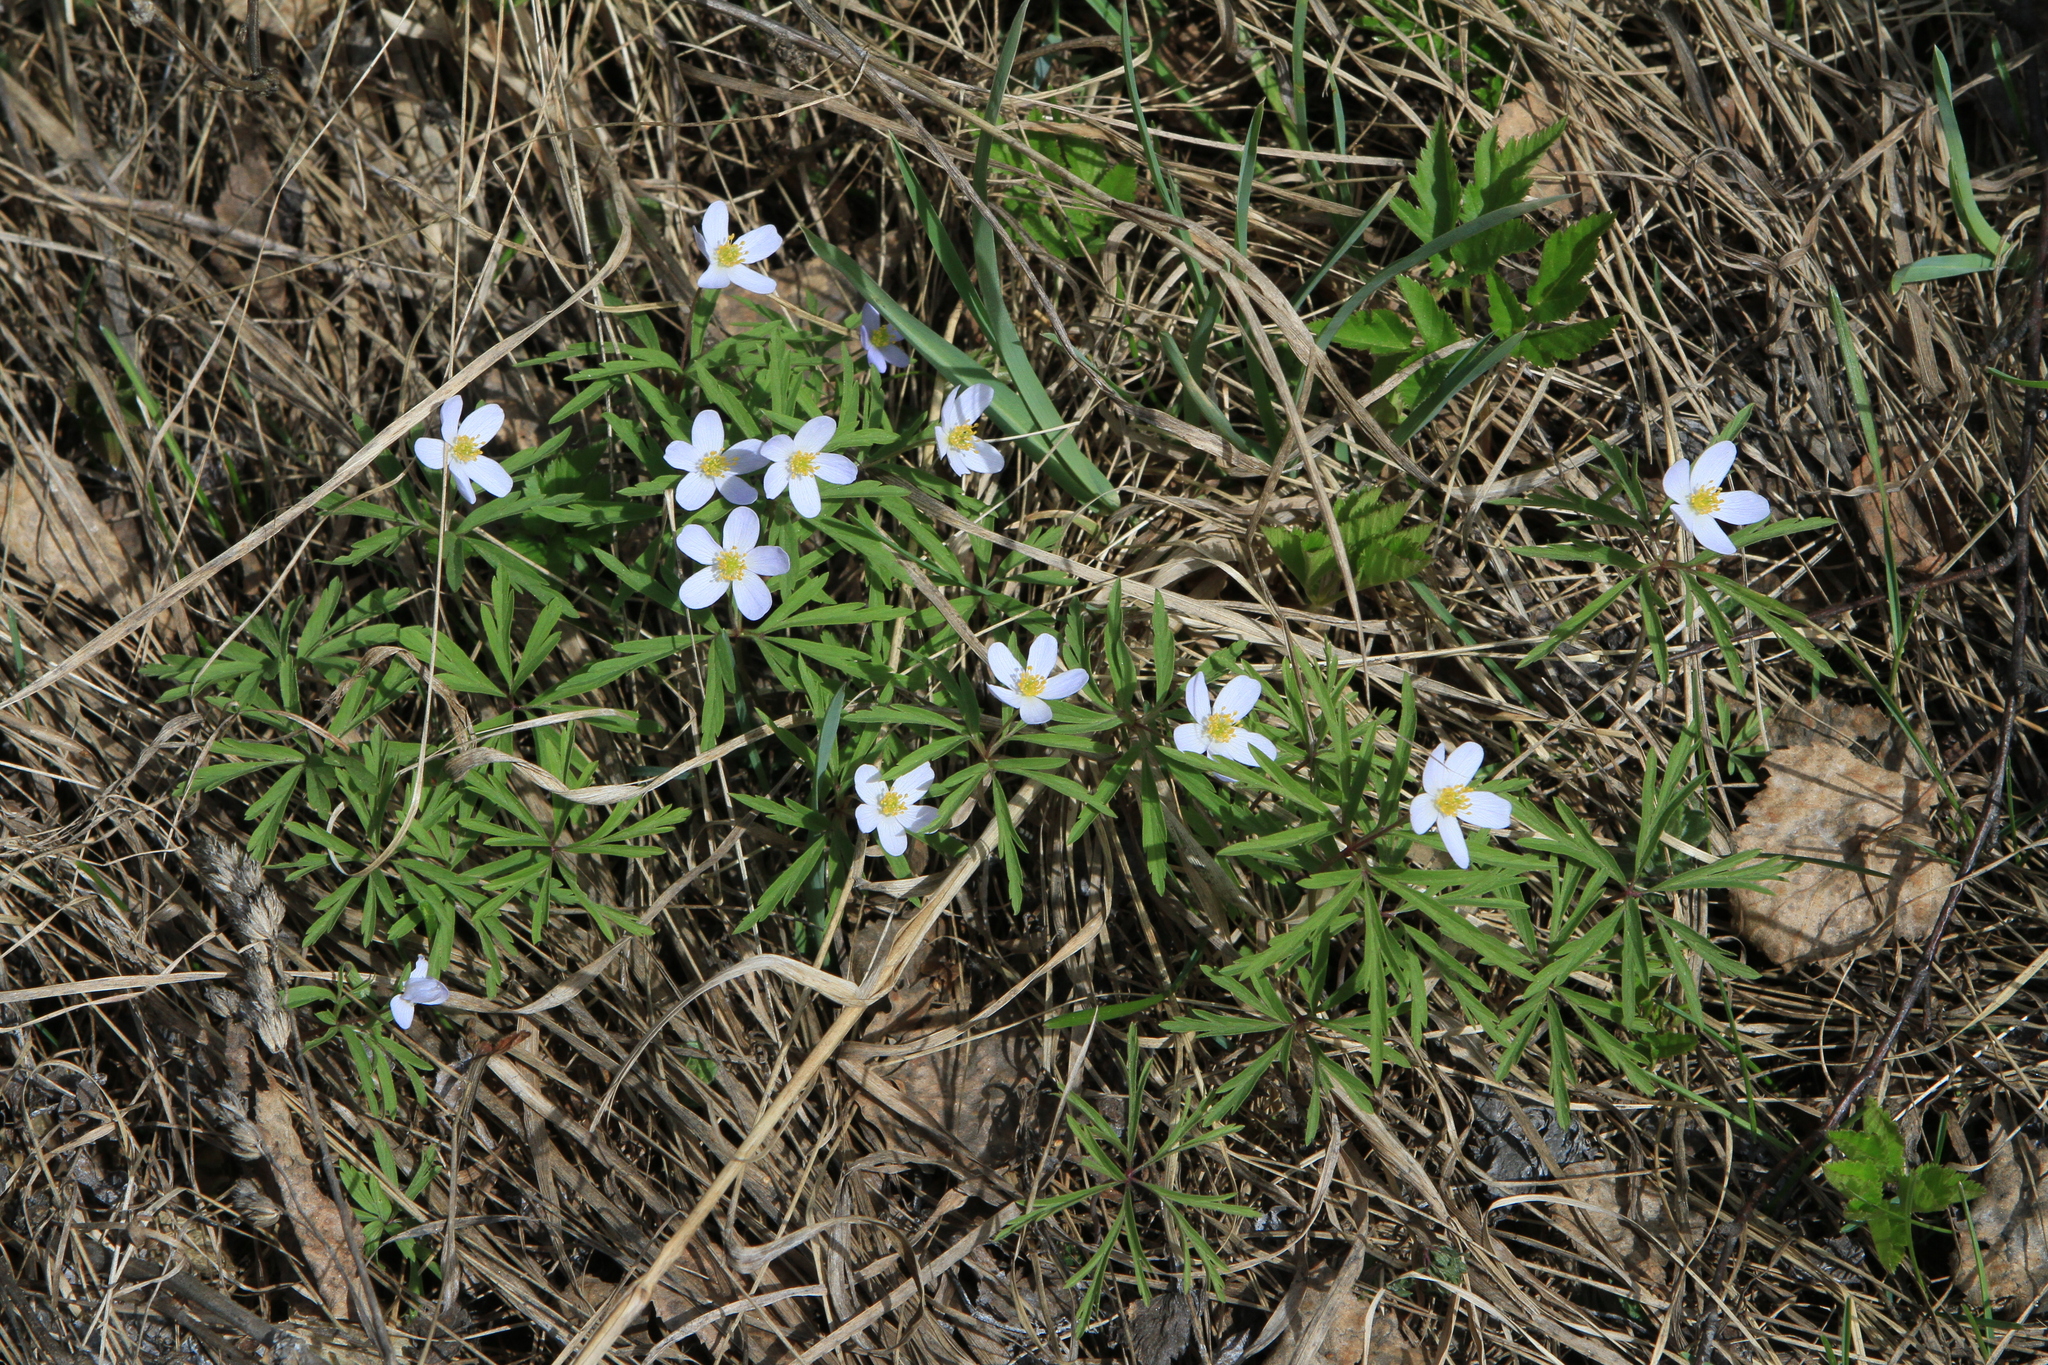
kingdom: Plantae
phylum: Tracheophyta
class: Magnoliopsida
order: Ranunculales
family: Ranunculaceae
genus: Anemone
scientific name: Anemone caerulea
